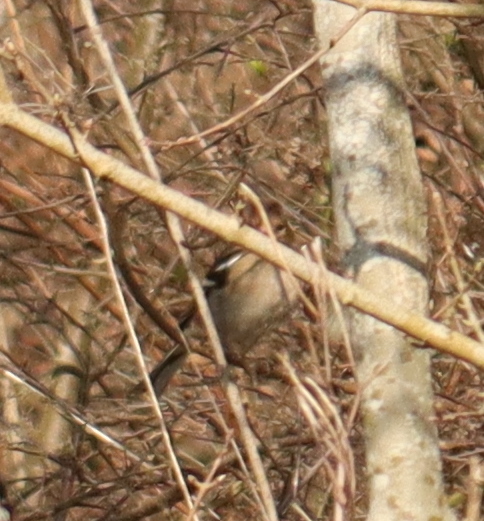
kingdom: Animalia
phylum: Chordata
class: Aves
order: Passeriformes
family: Fringillidae
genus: Fringilla
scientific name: Fringilla coelebs
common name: Common chaffinch
